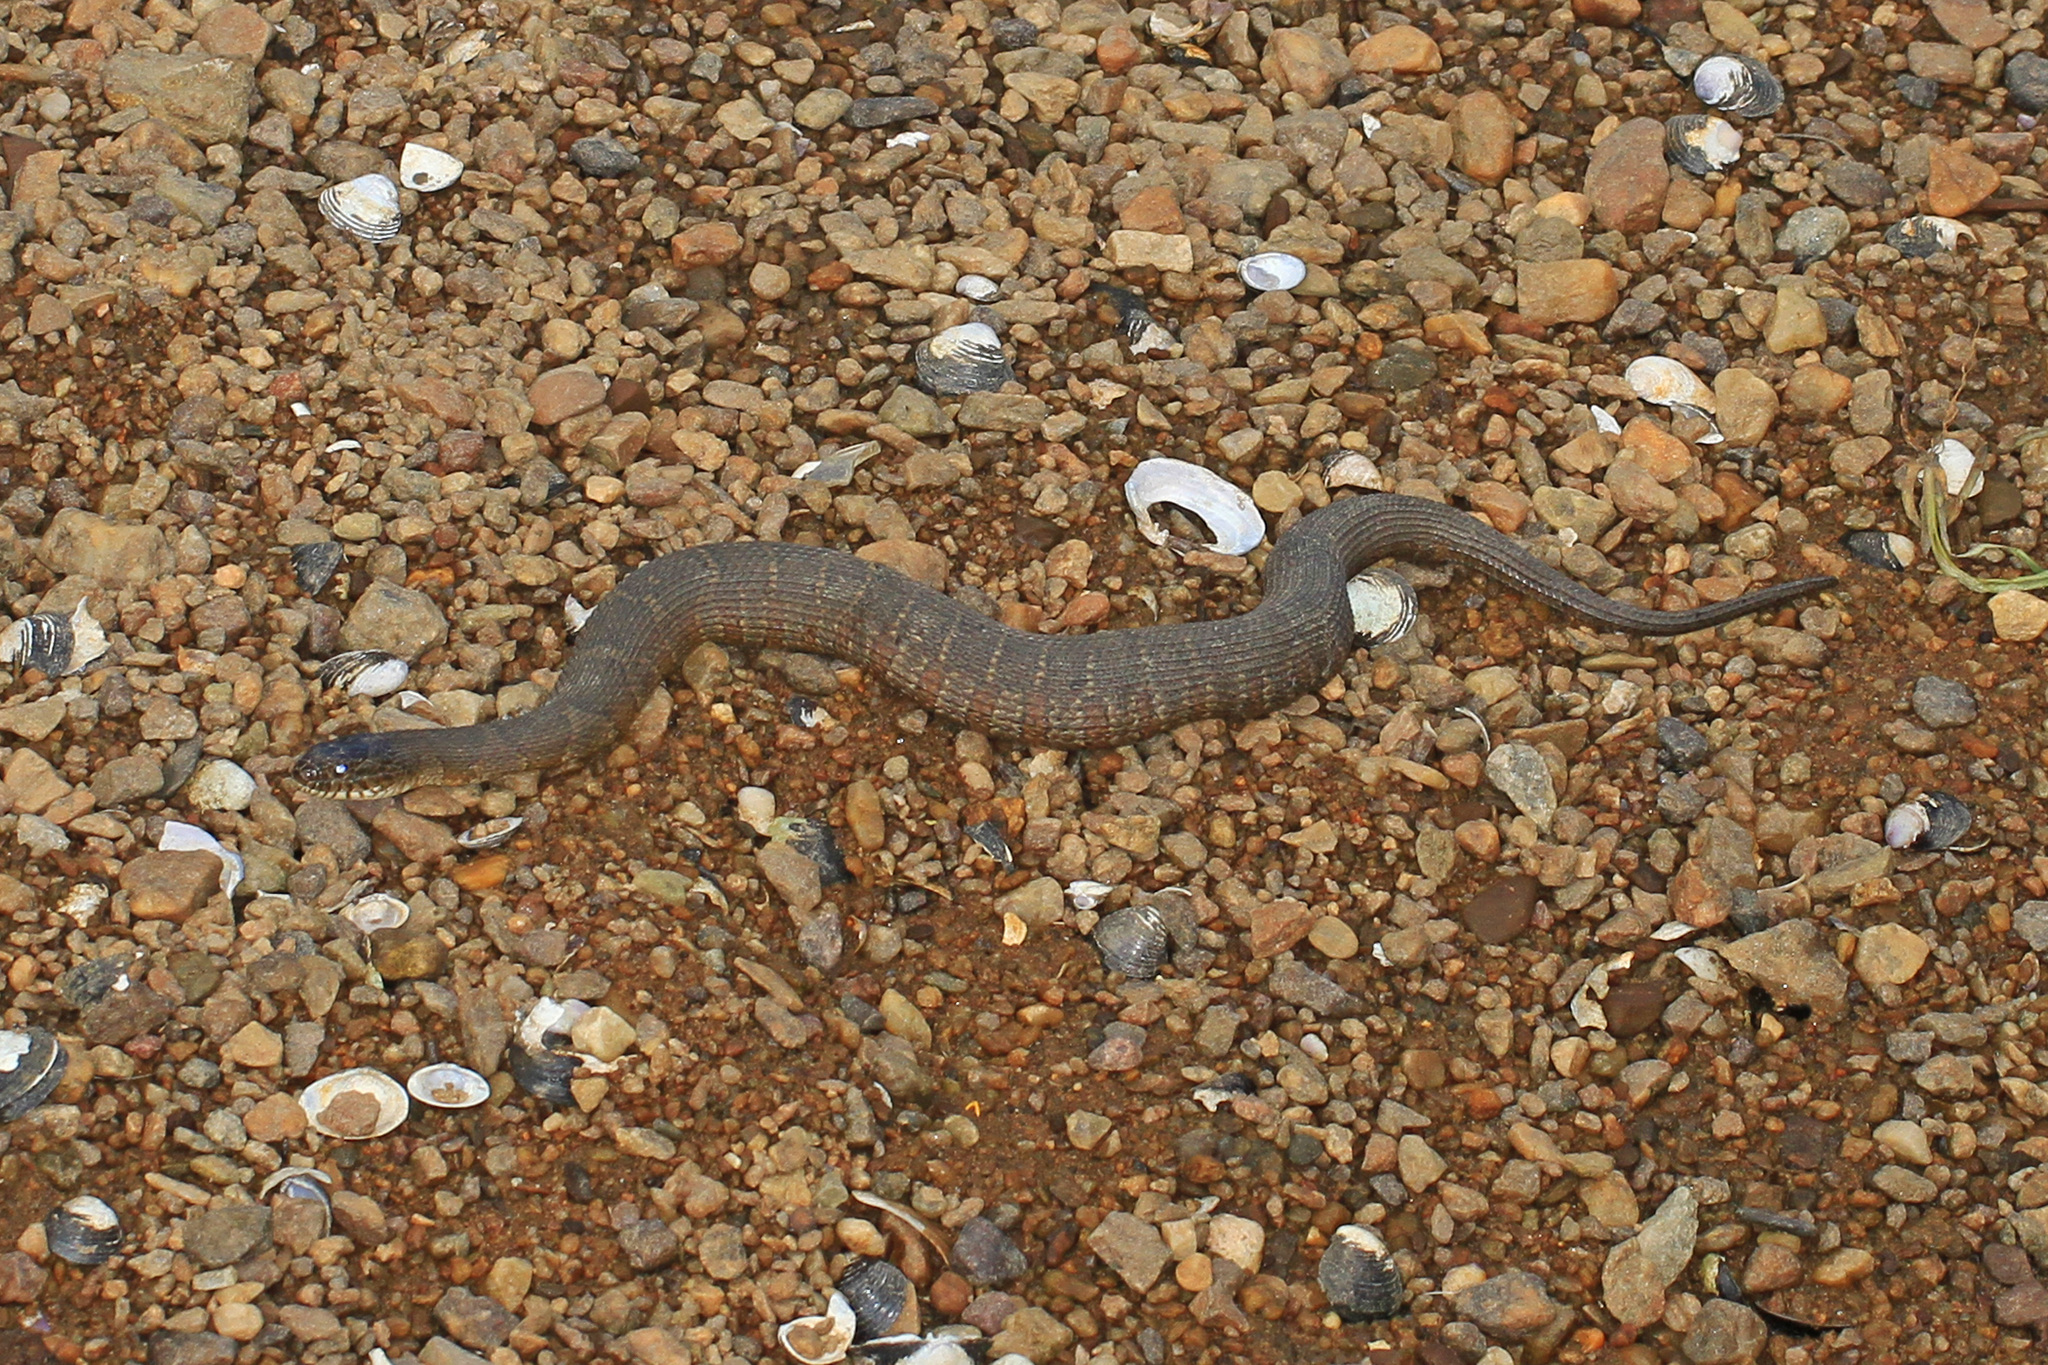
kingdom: Animalia
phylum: Chordata
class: Squamata
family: Colubridae
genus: Nerodia
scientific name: Nerodia sipedon
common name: Northern water snake
